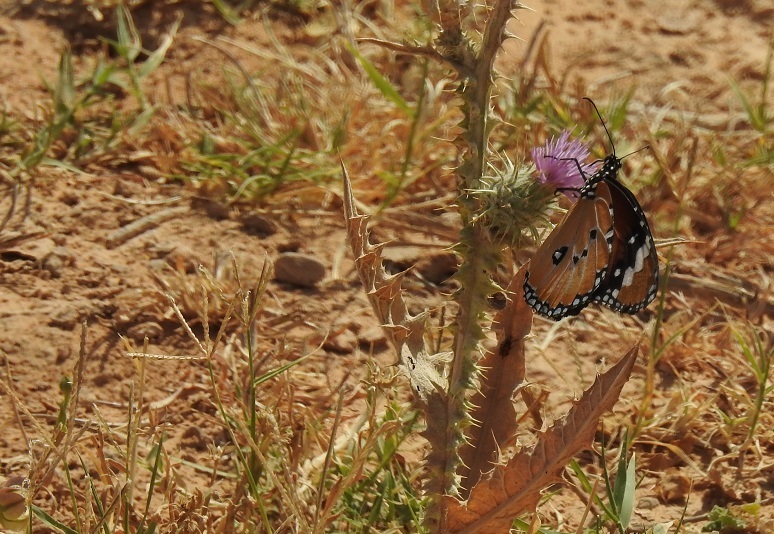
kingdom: Animalia
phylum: Arthropoda
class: Insecta
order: Lepidoptera
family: Nymphalidae
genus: Danaus
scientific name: Danaus chrysippus
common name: Plain tiger
